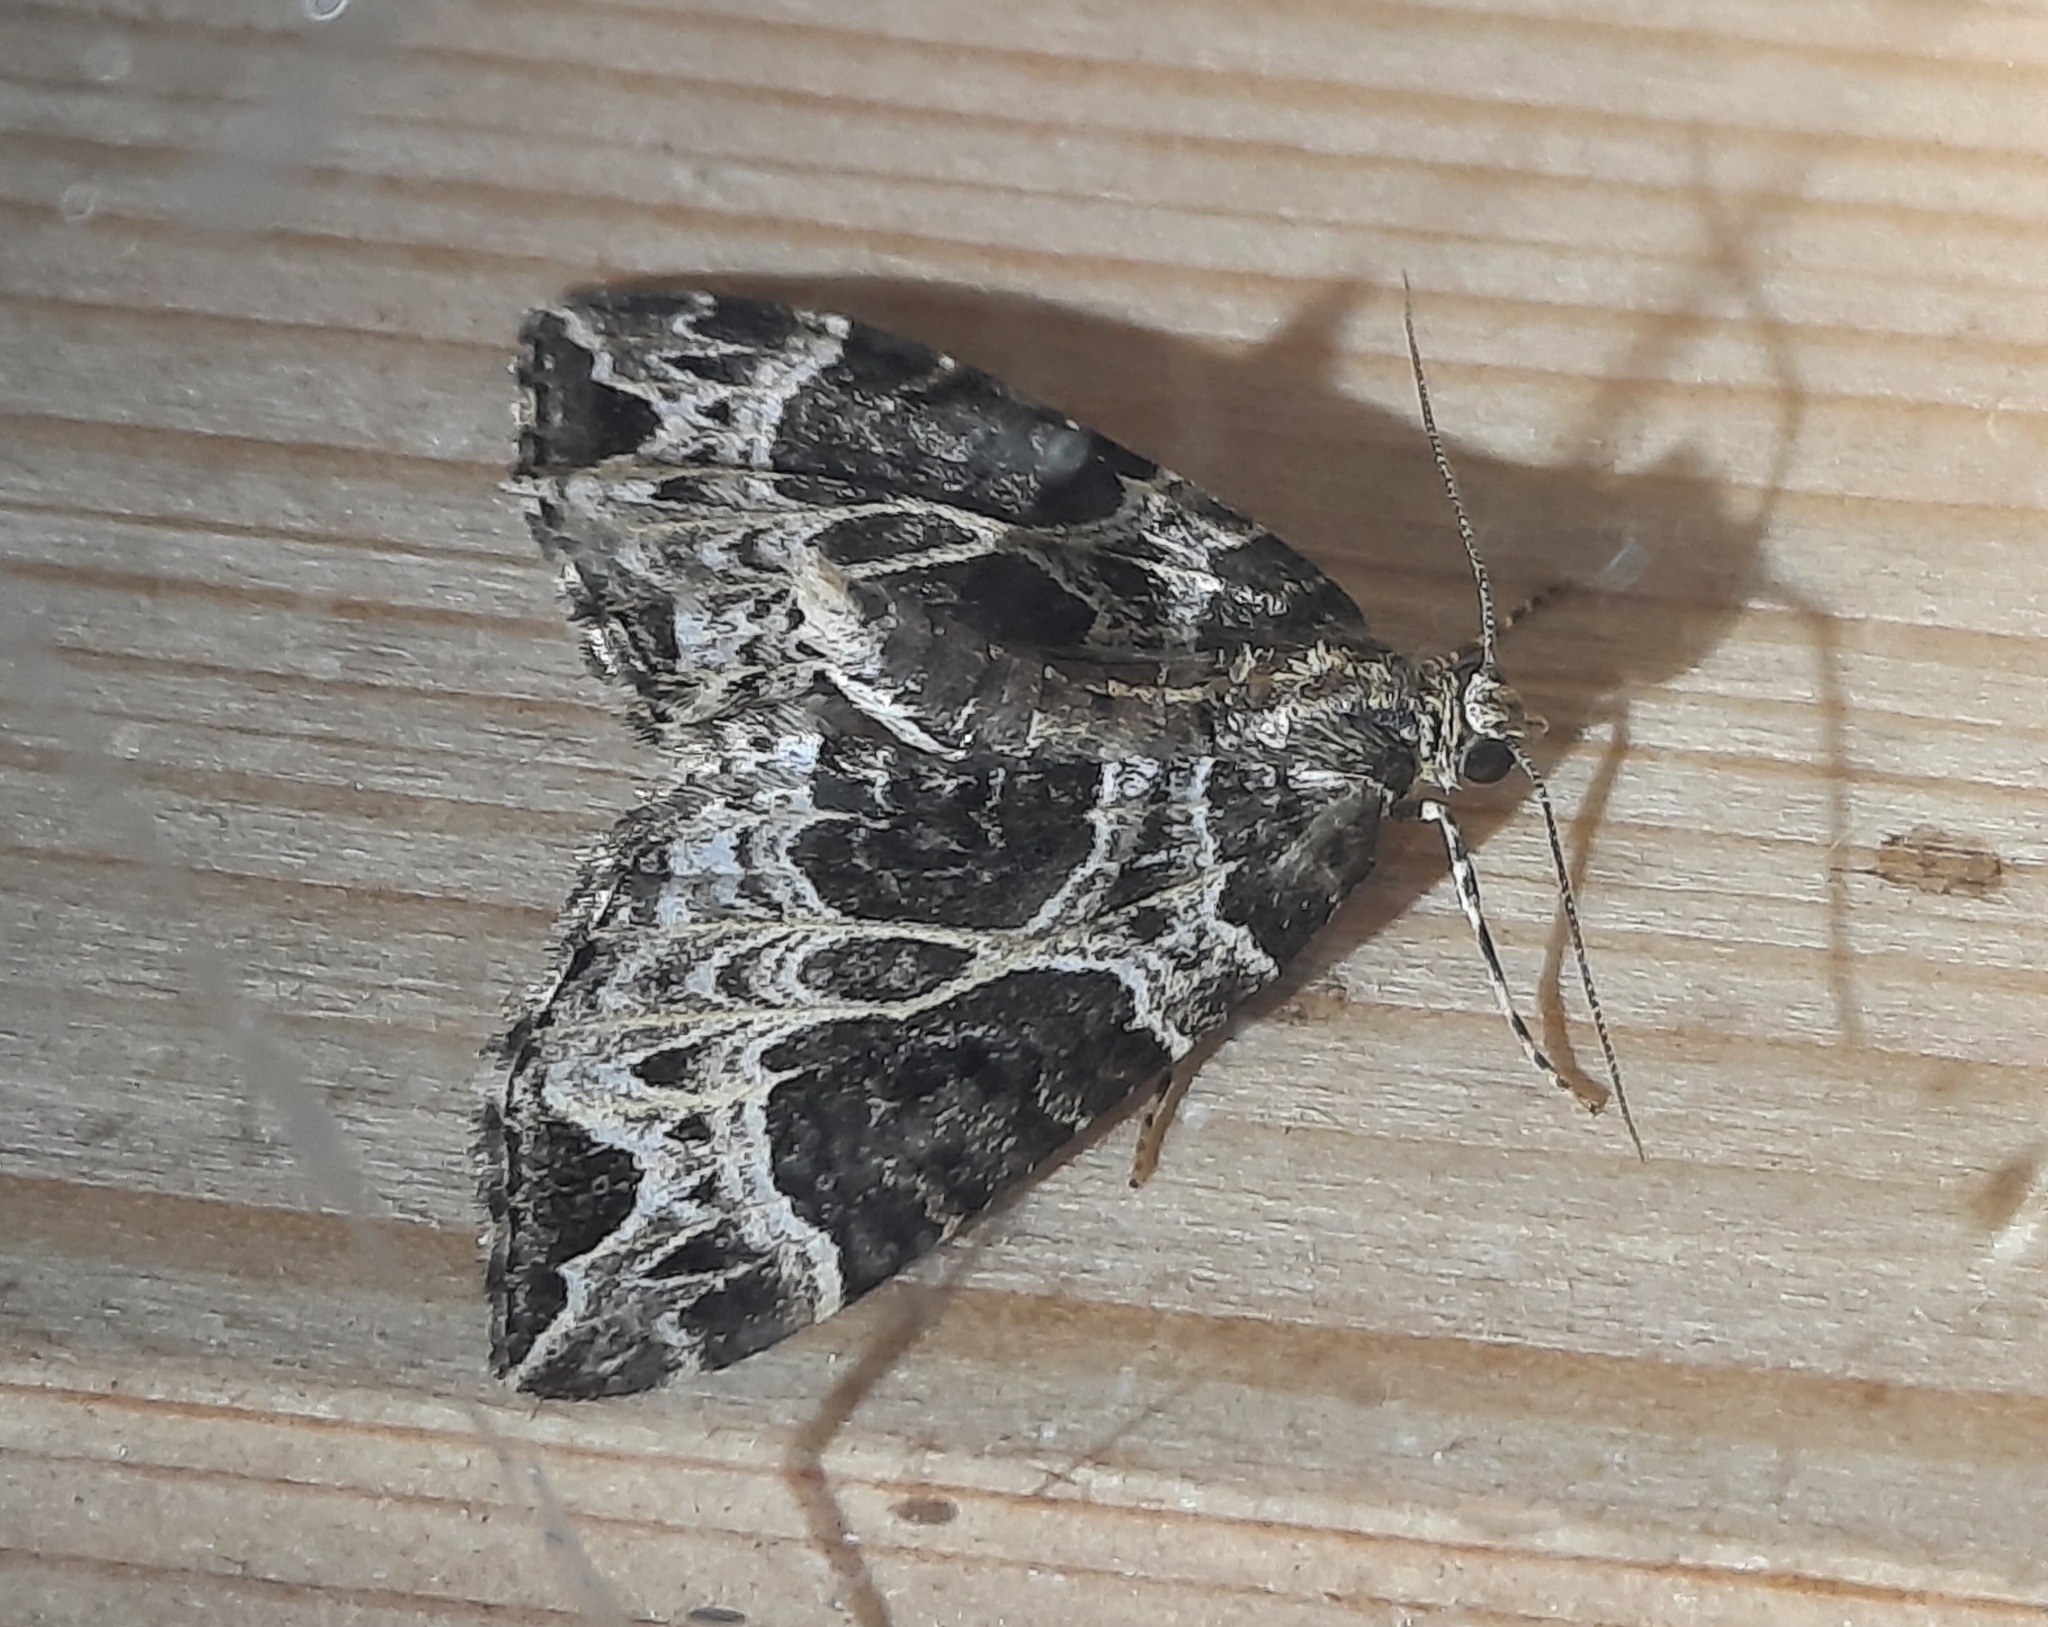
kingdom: Animalia
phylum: Arthropoda
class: Insecta
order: Lepidoptera
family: Geometridae
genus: Ecliptopera
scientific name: Ecliptopera silaceata
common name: Small phoenix
